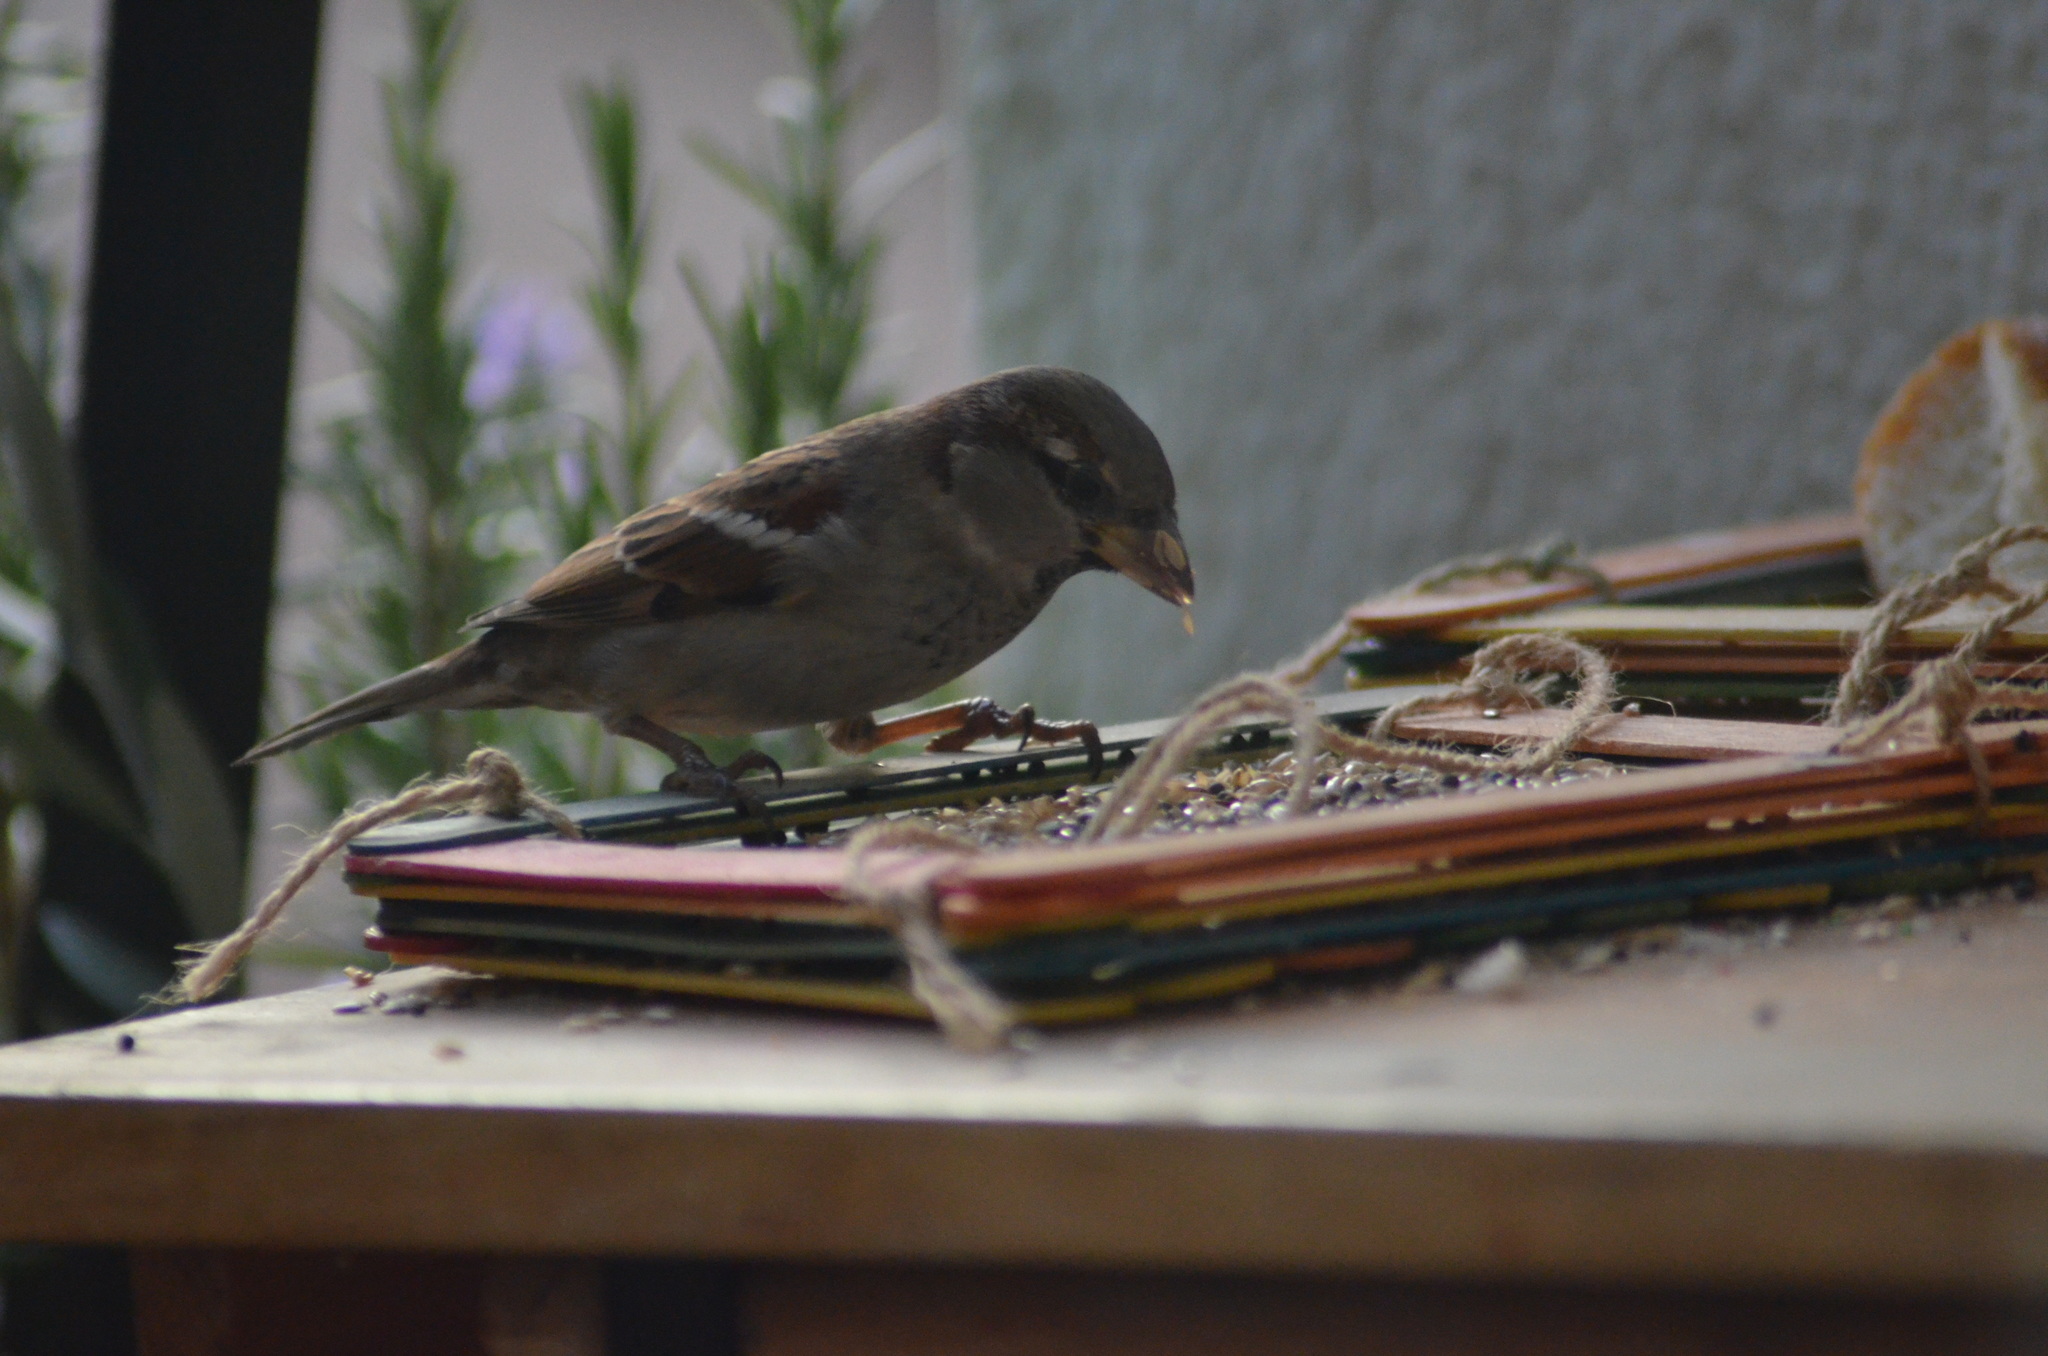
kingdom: Animalia
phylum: Chordata
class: Aves
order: Passeriformes
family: Passeridae
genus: Passer
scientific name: Passer domesticus
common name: House sparrow
